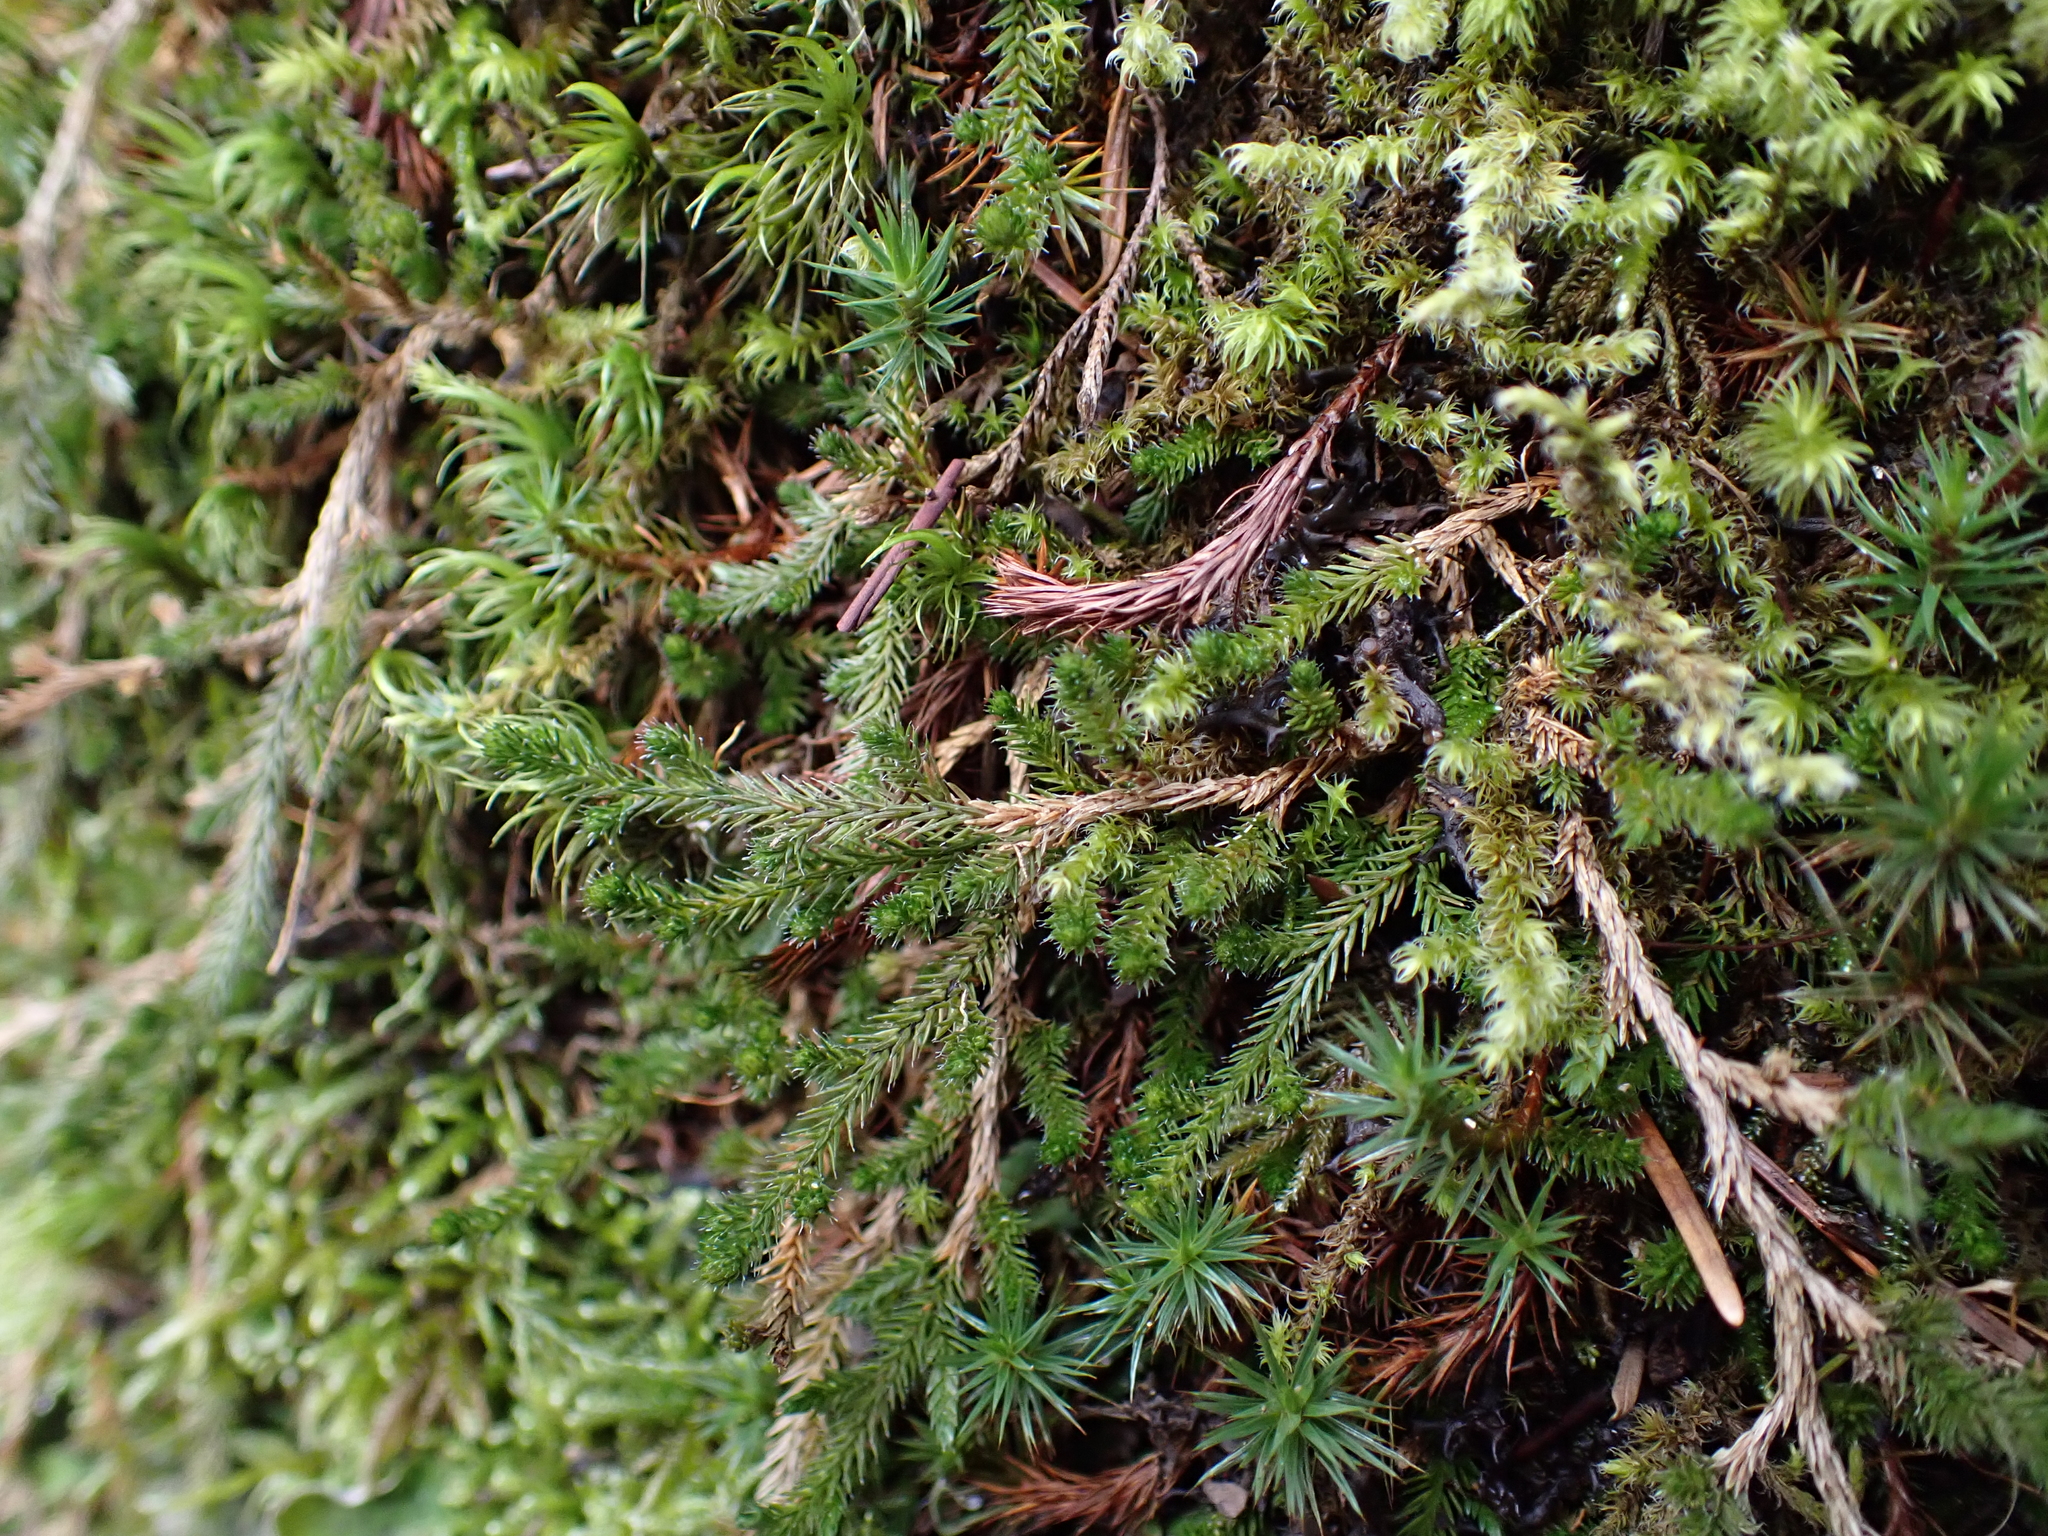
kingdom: Plantae
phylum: Tracheophyta
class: Lycopodiopsida
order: Selaginellales
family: Selaginellaceae
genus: Selaginella
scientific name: Selaginella wallacei
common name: Wallace's selaginella
